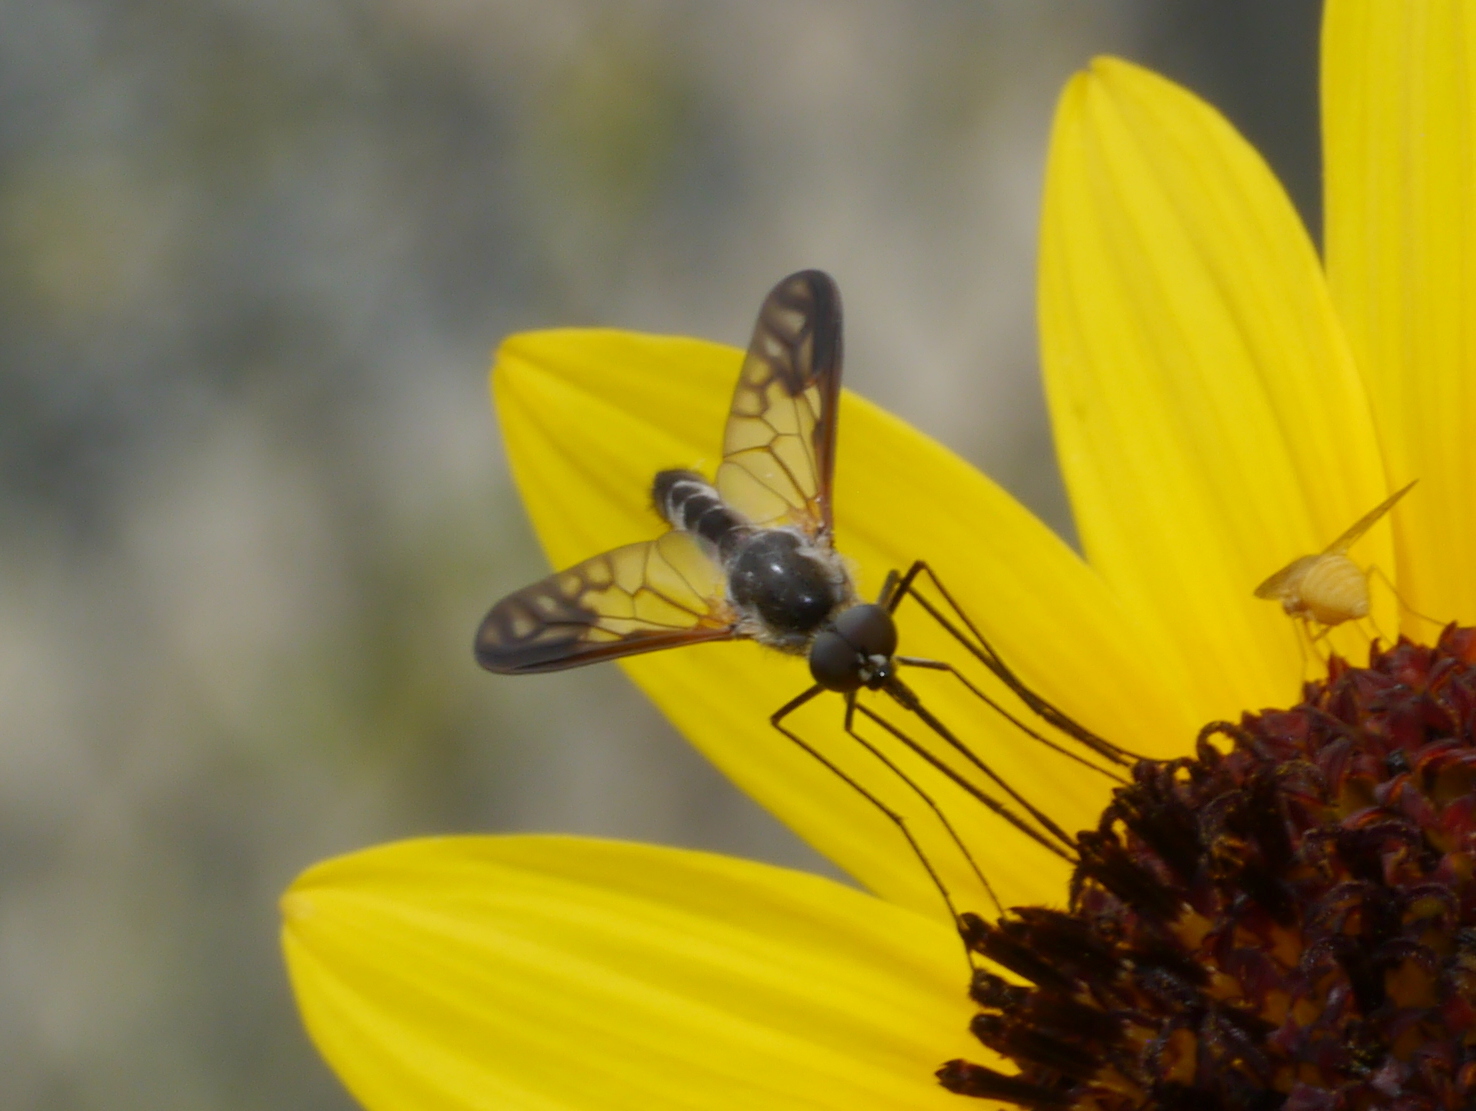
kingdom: Animalia
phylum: Arthropoda
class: Insecta
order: Diptera
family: Bombyliidae
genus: Thevenetimyia
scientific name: Thevenetimyia maculipennis
